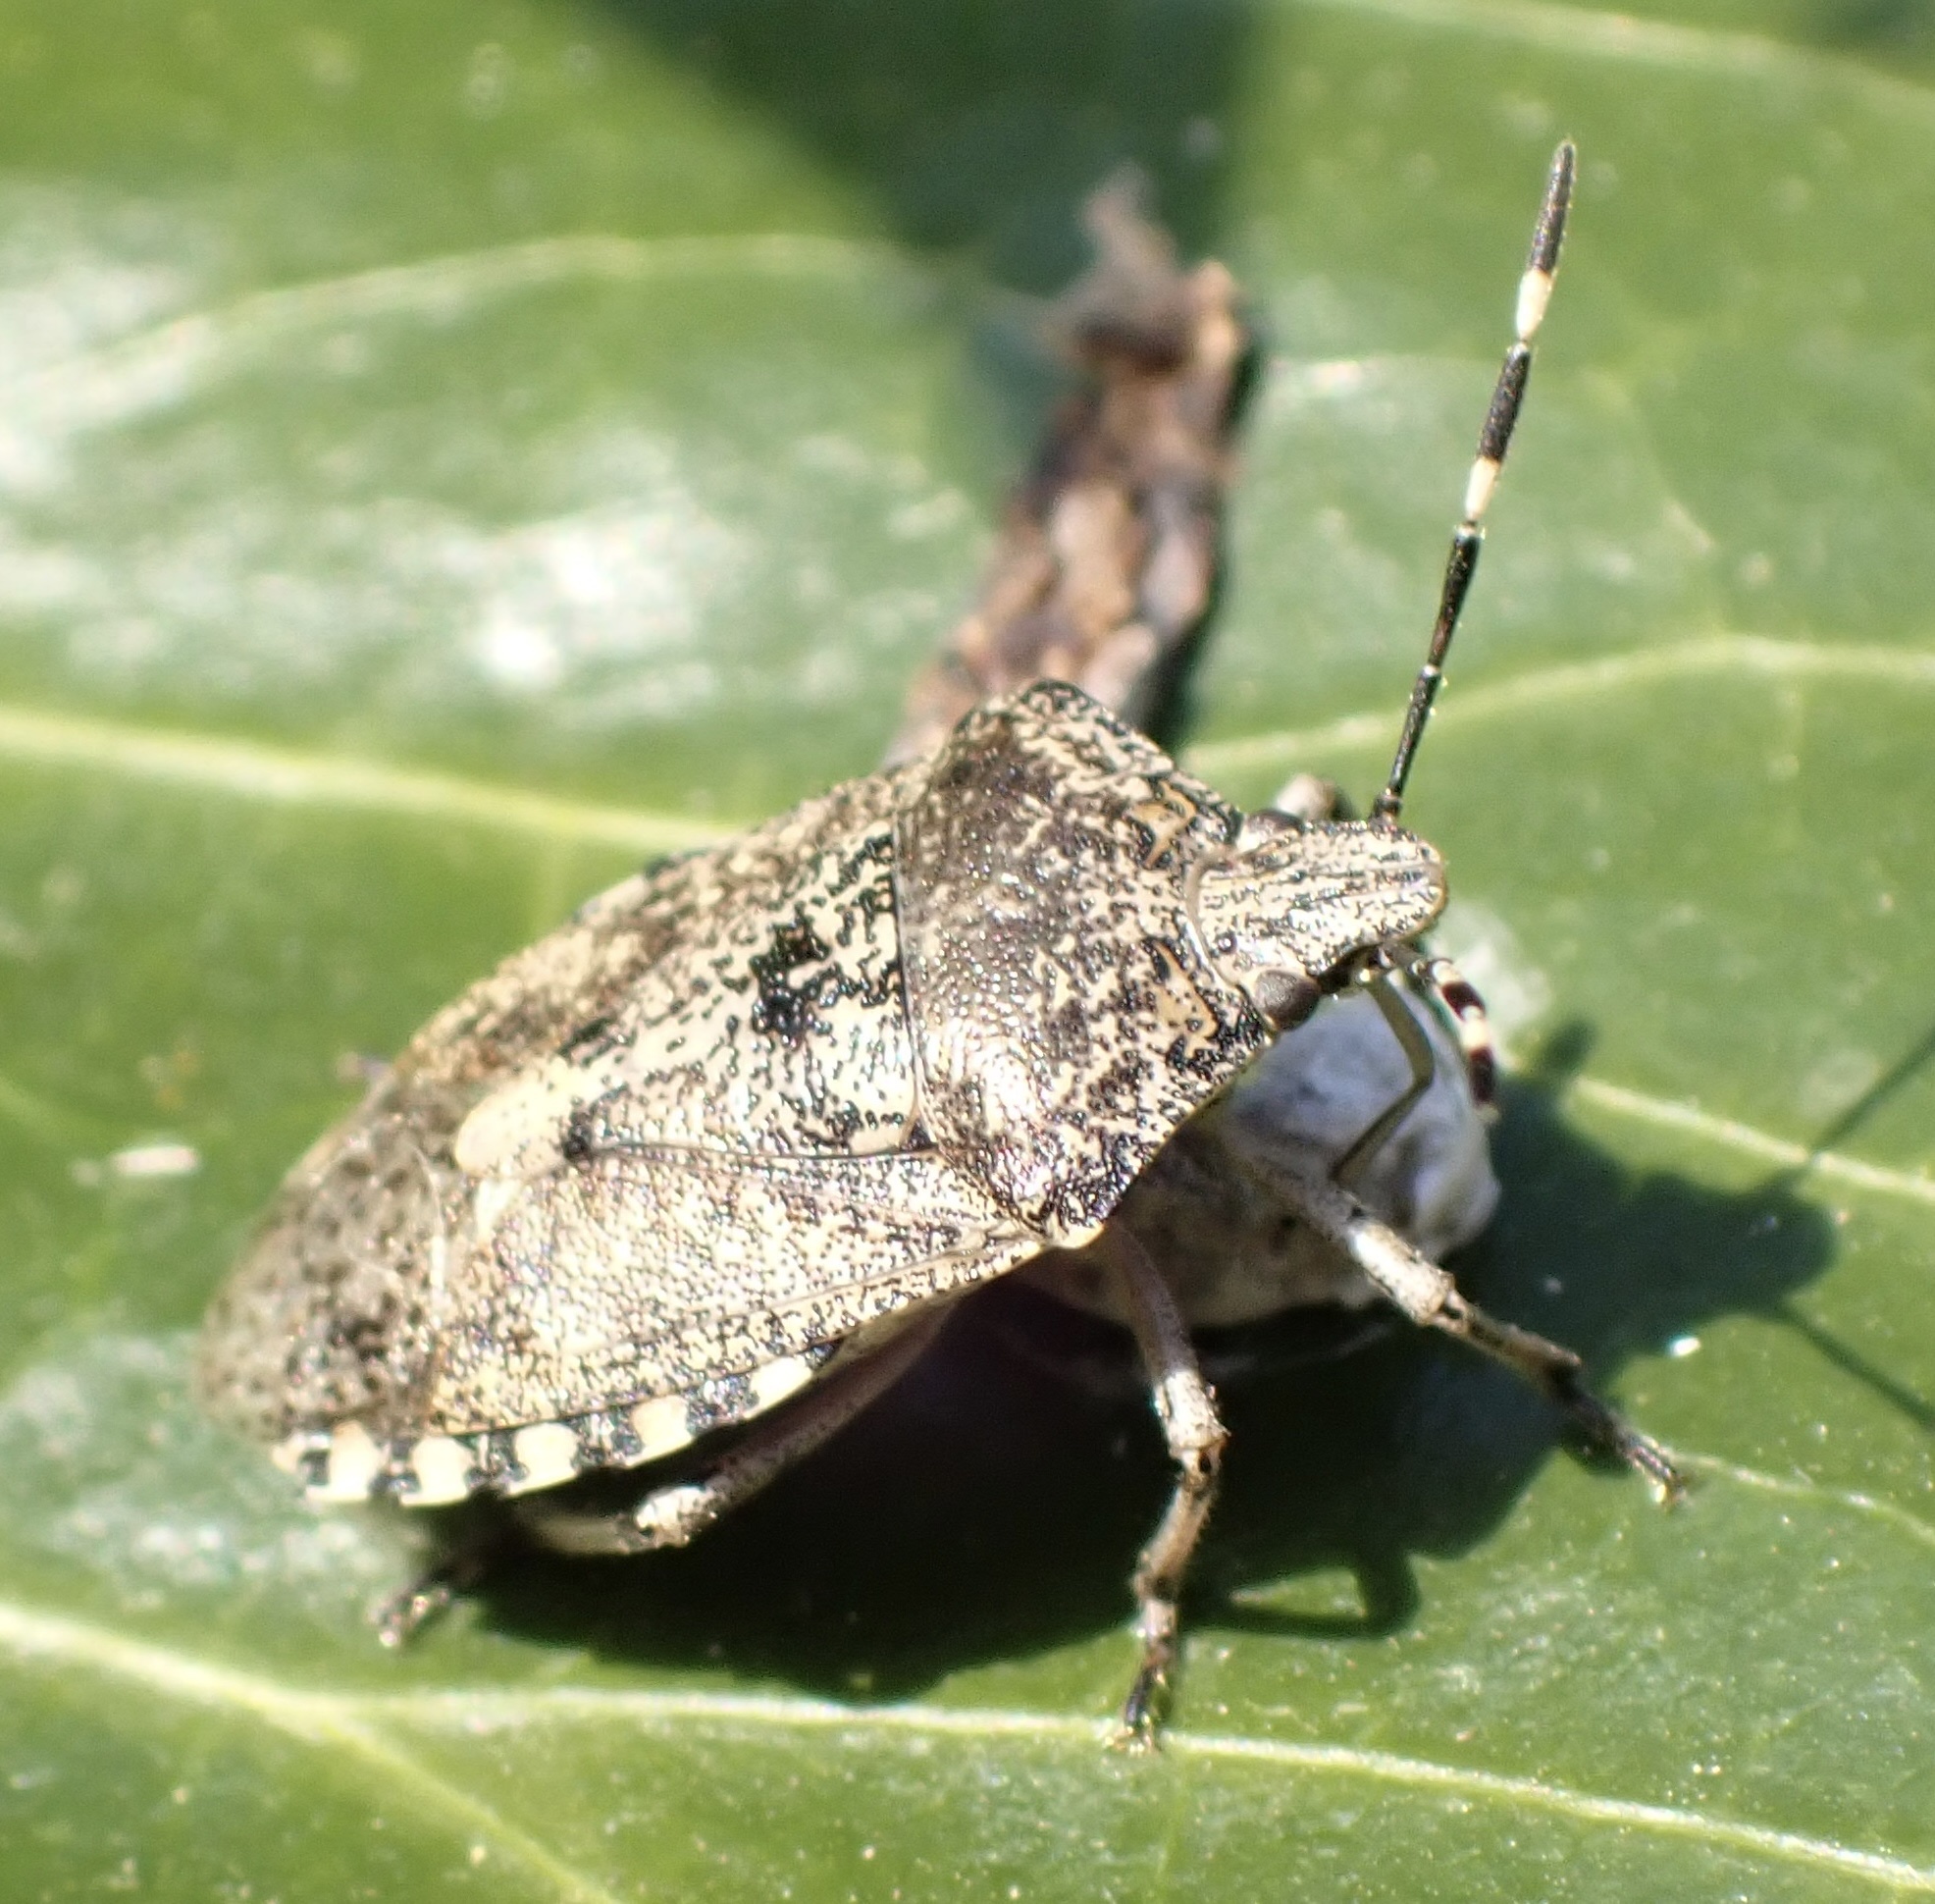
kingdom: Animalia
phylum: Arthropoda
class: Insecta
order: Hemiptera
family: Pentatomidae
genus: Rhaphigaster
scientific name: Rhaphigaster nebulosa
